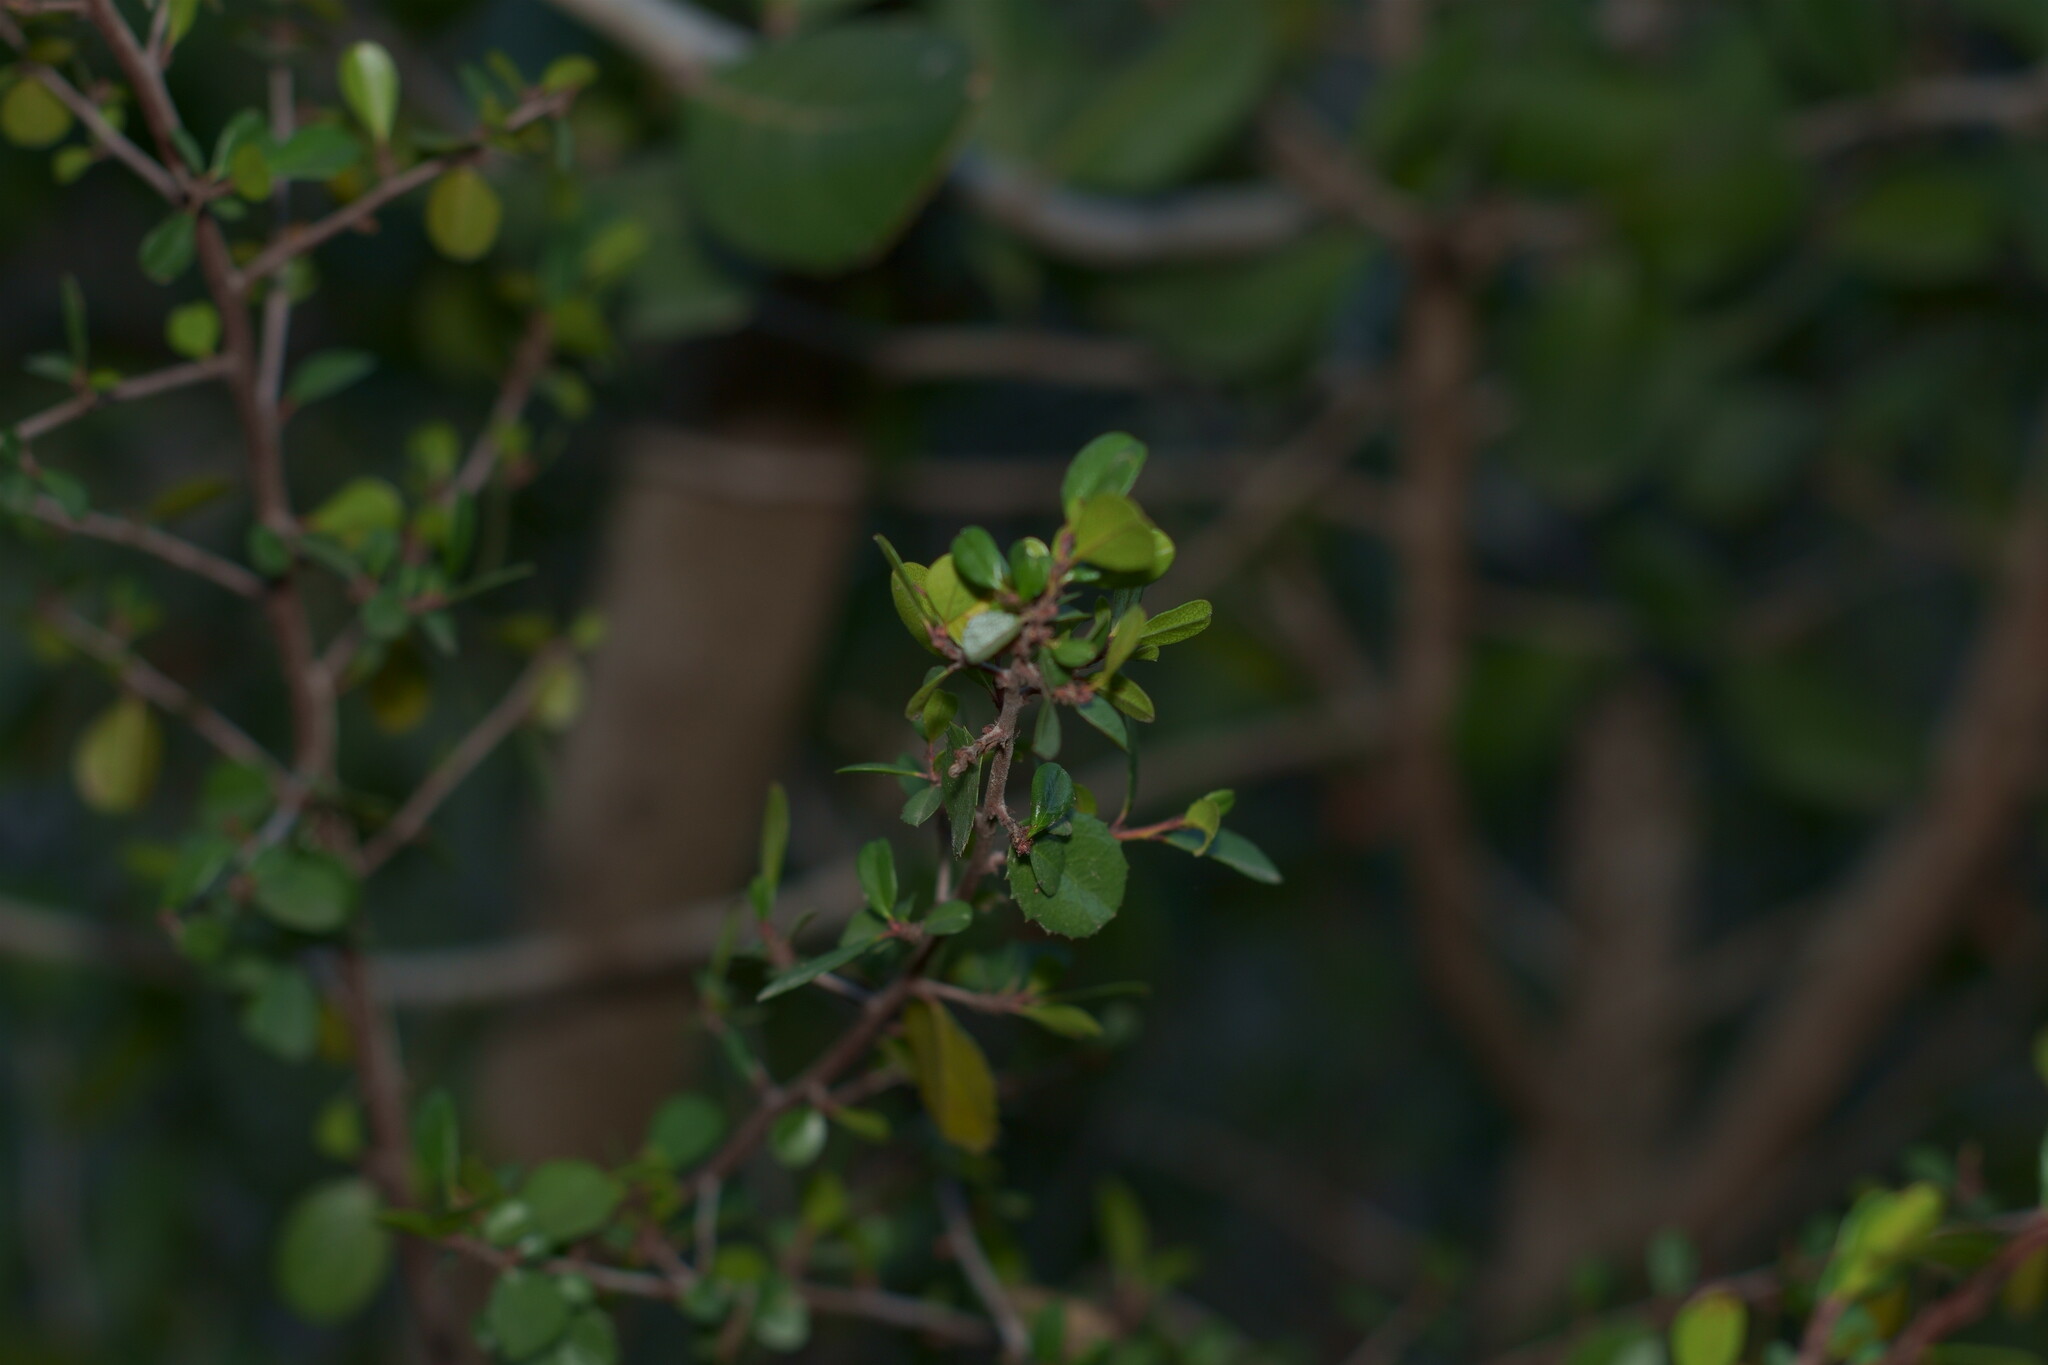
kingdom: Plantae
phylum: Tracheophyta
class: Magnoliopsida
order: Rosales
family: Rhamnaceae
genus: Endotropis
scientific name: Endotropis crocea
